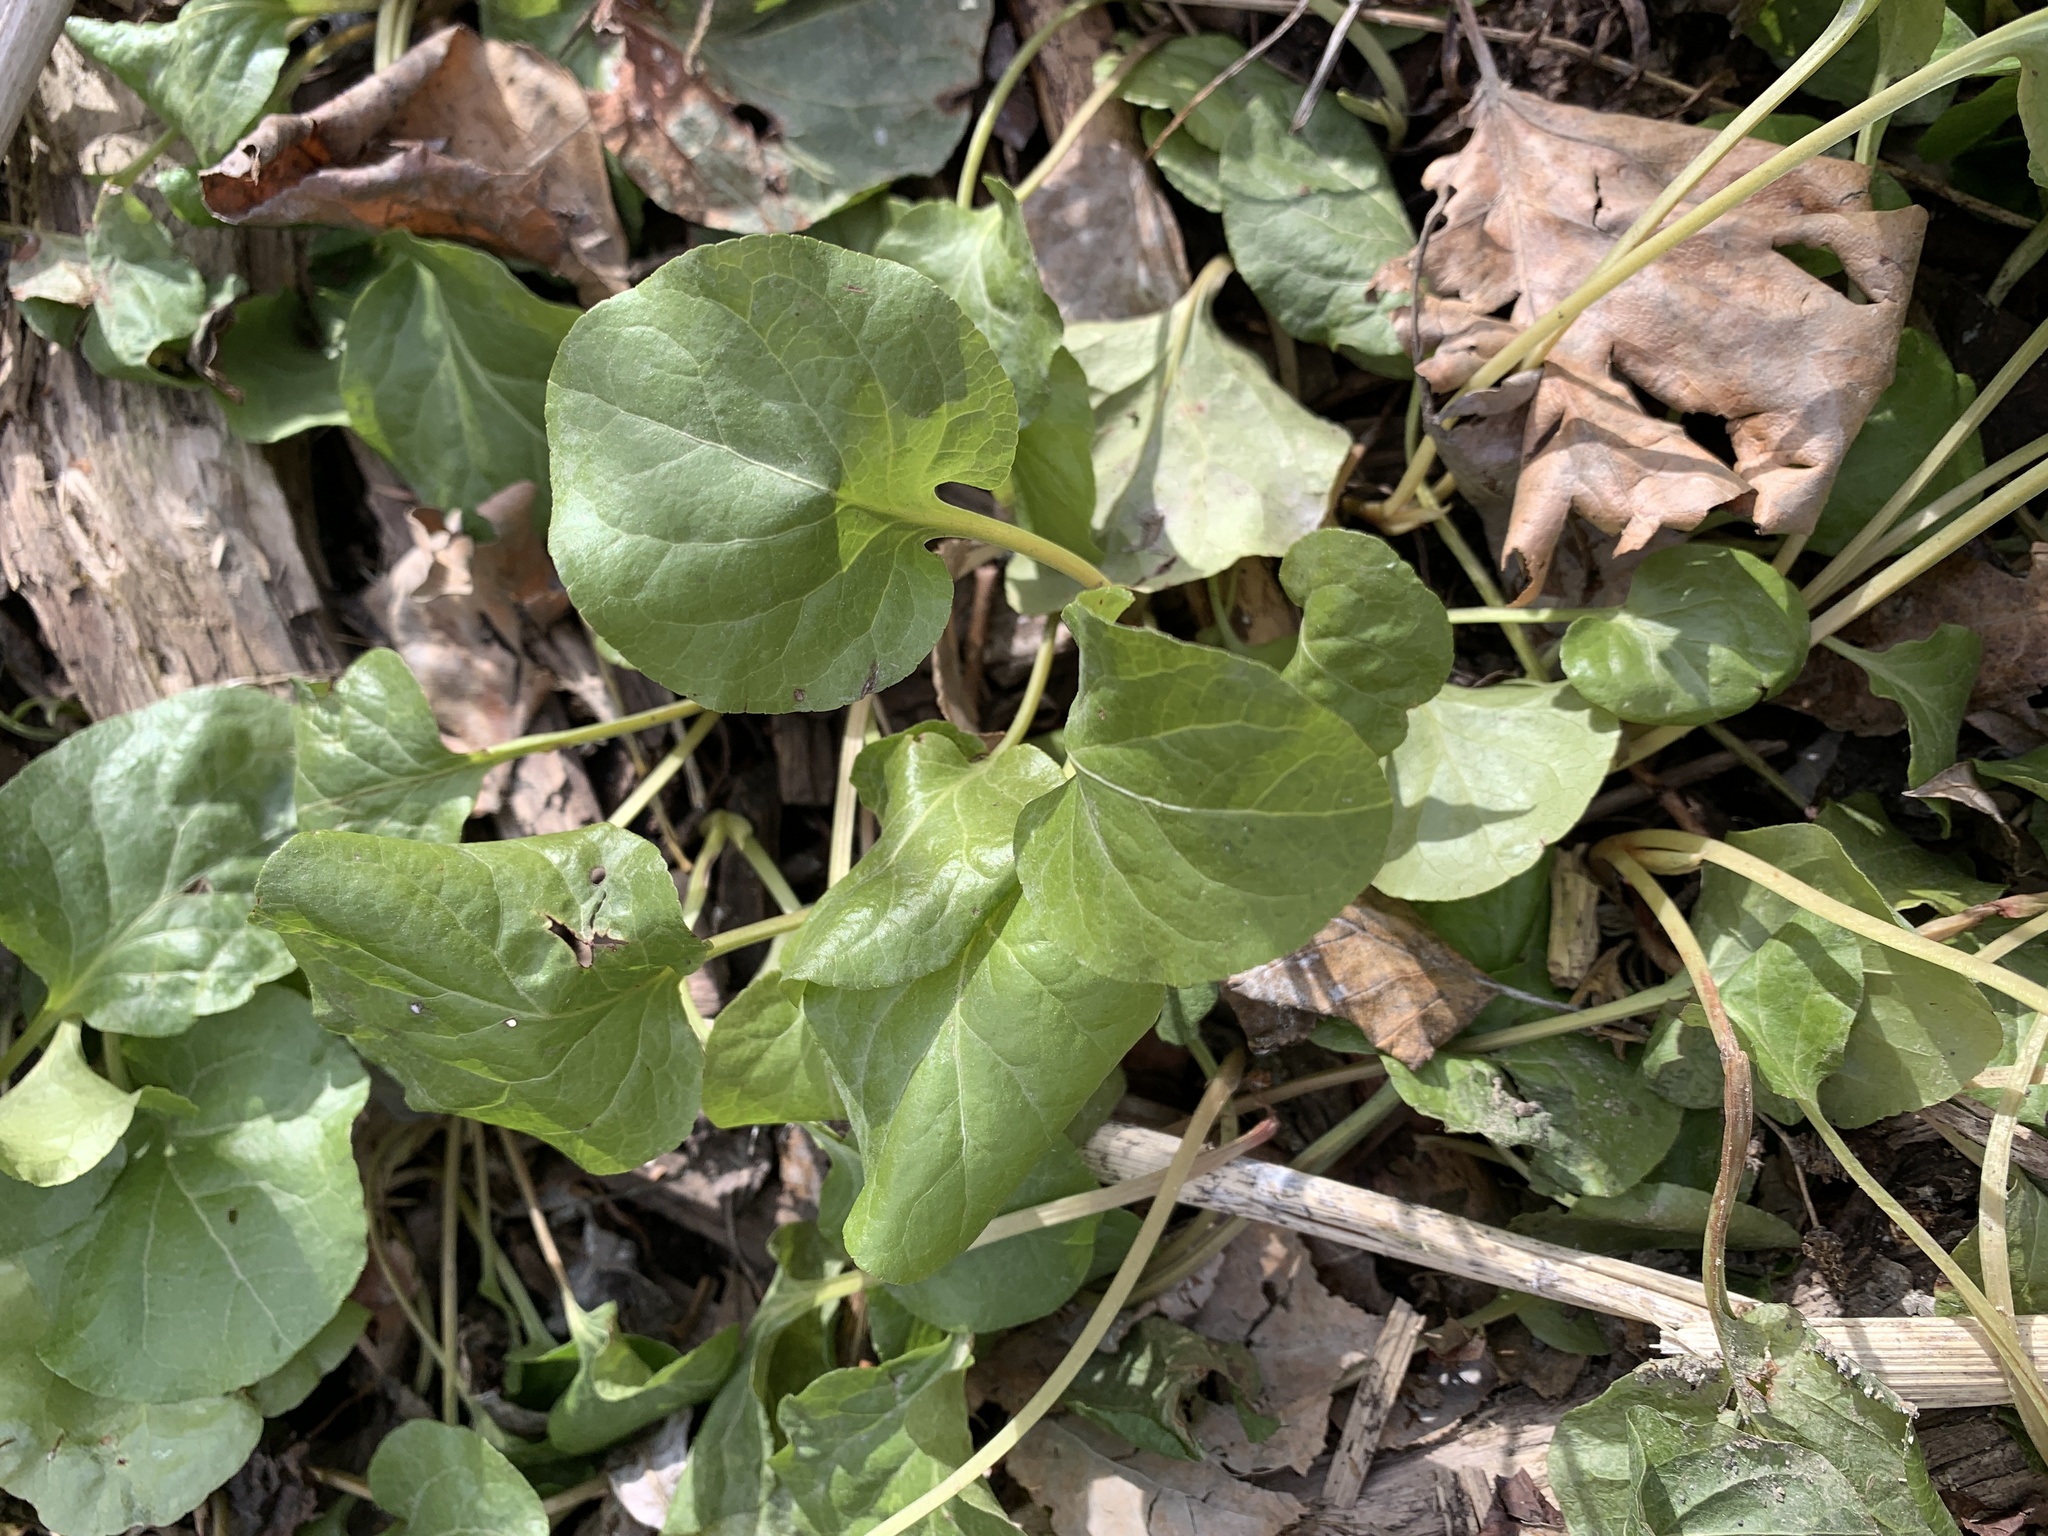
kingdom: Plantae
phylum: Tracheophyta
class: Magnoliopsida
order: Ericales
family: Ericaceae
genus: Pyrola
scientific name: Pyrola asarifolia
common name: Bog wintergreen
